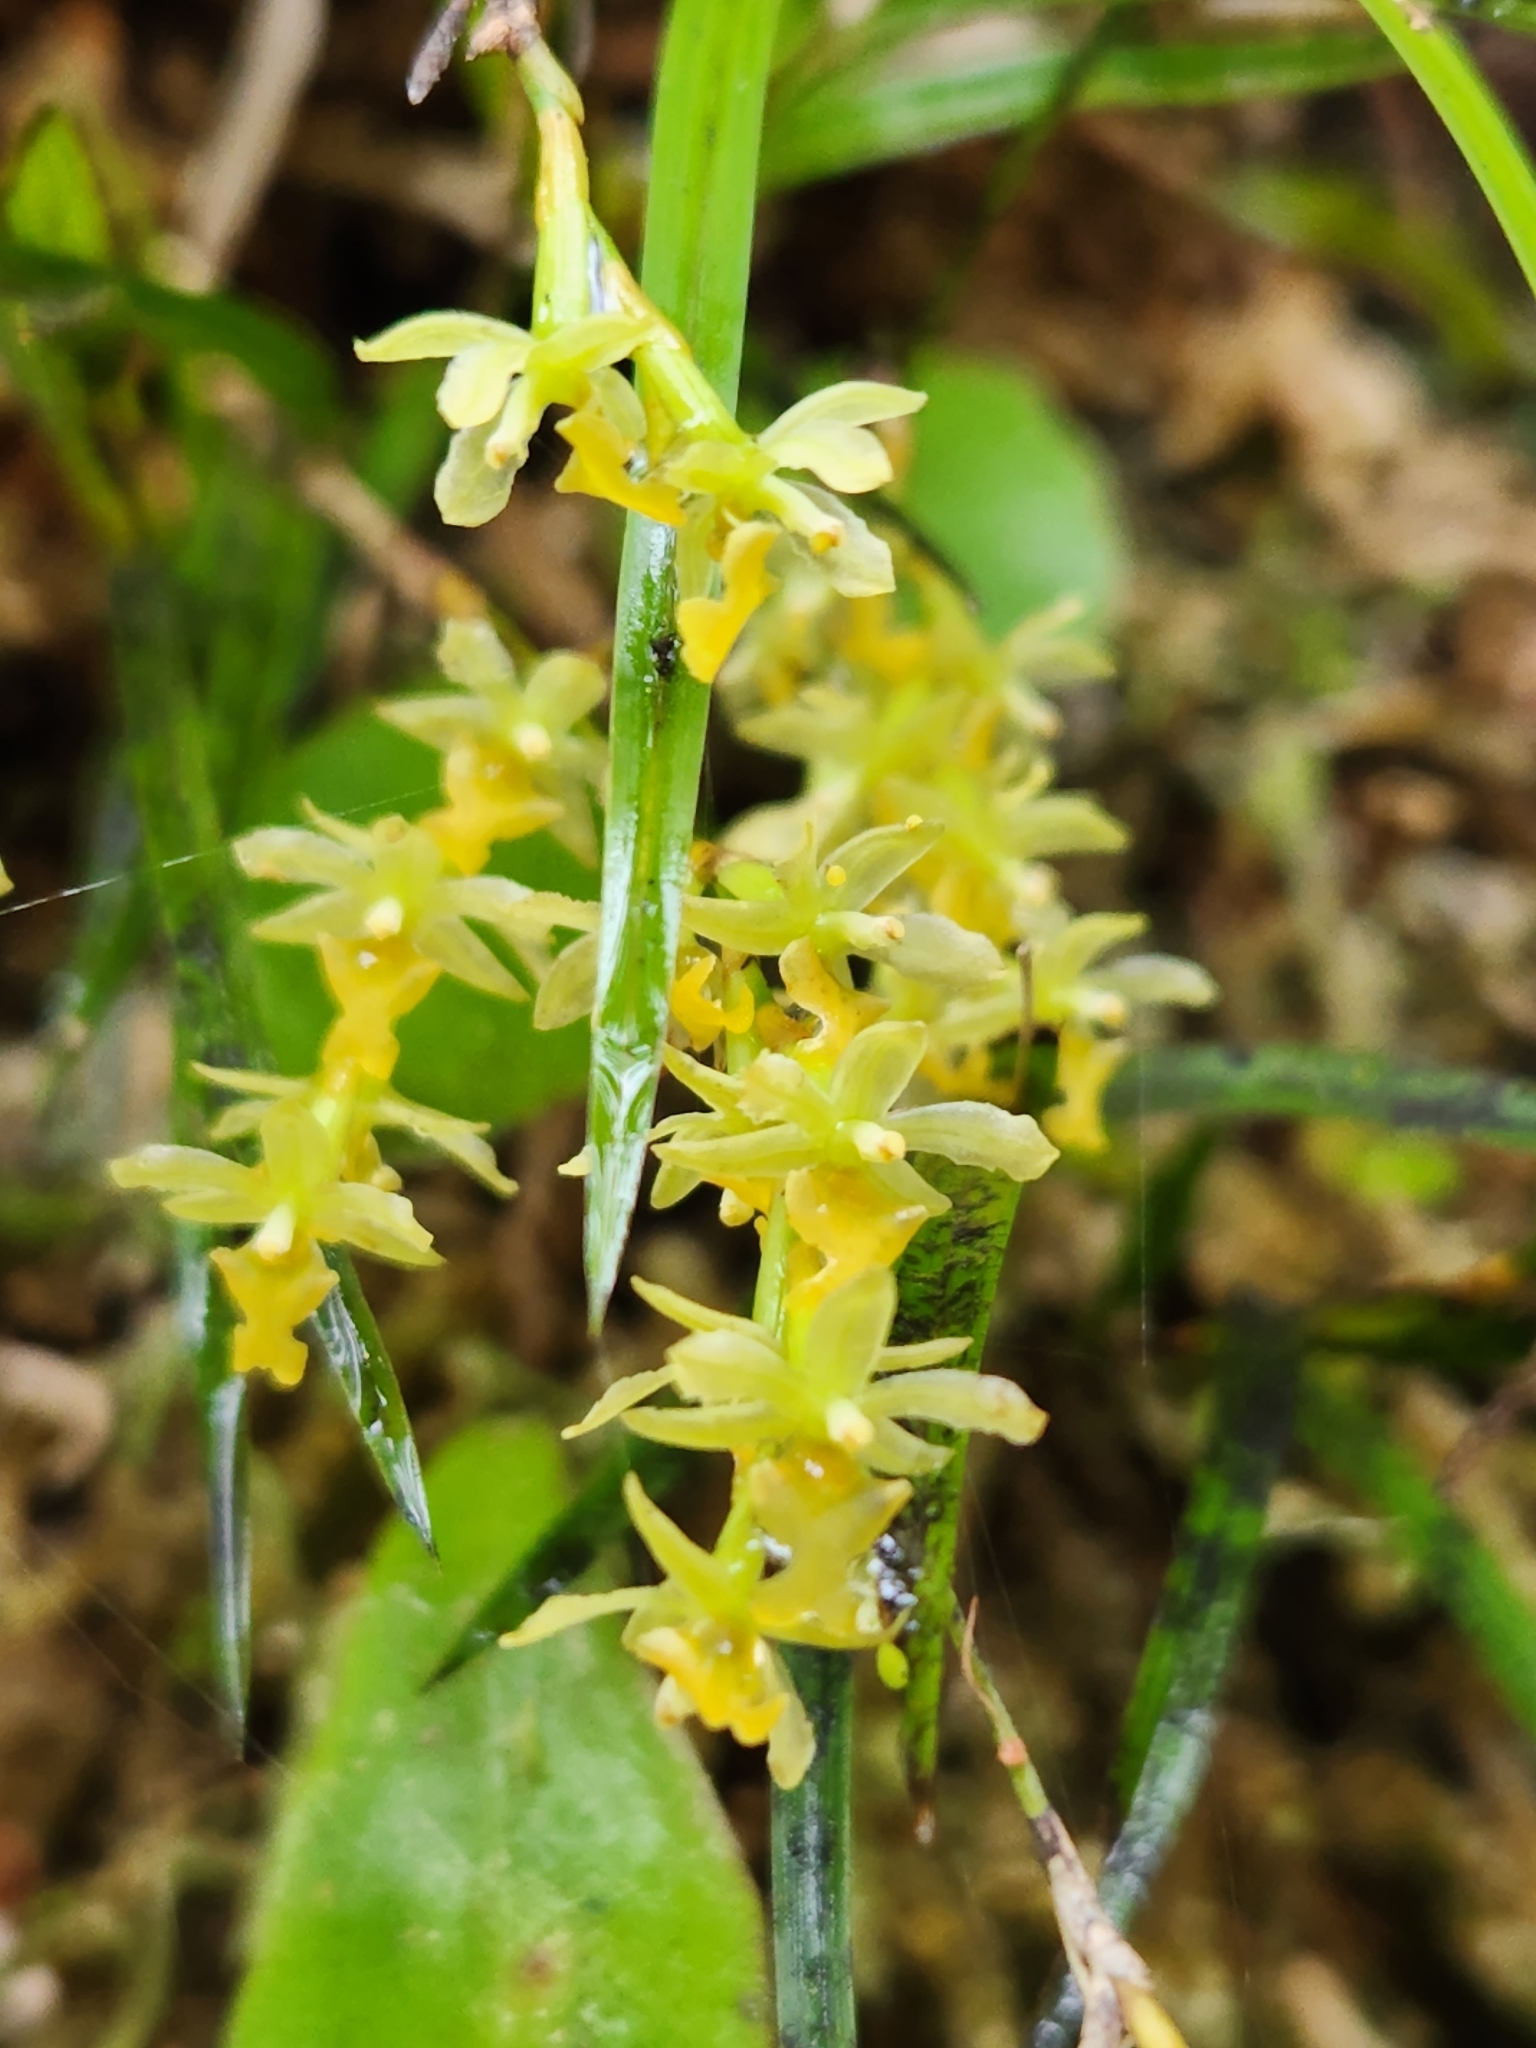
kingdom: Plantae
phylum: Tracheophyta
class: Liliopsida
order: Asparagales
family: Orchidaceae
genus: Earina
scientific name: Earina mucronata
